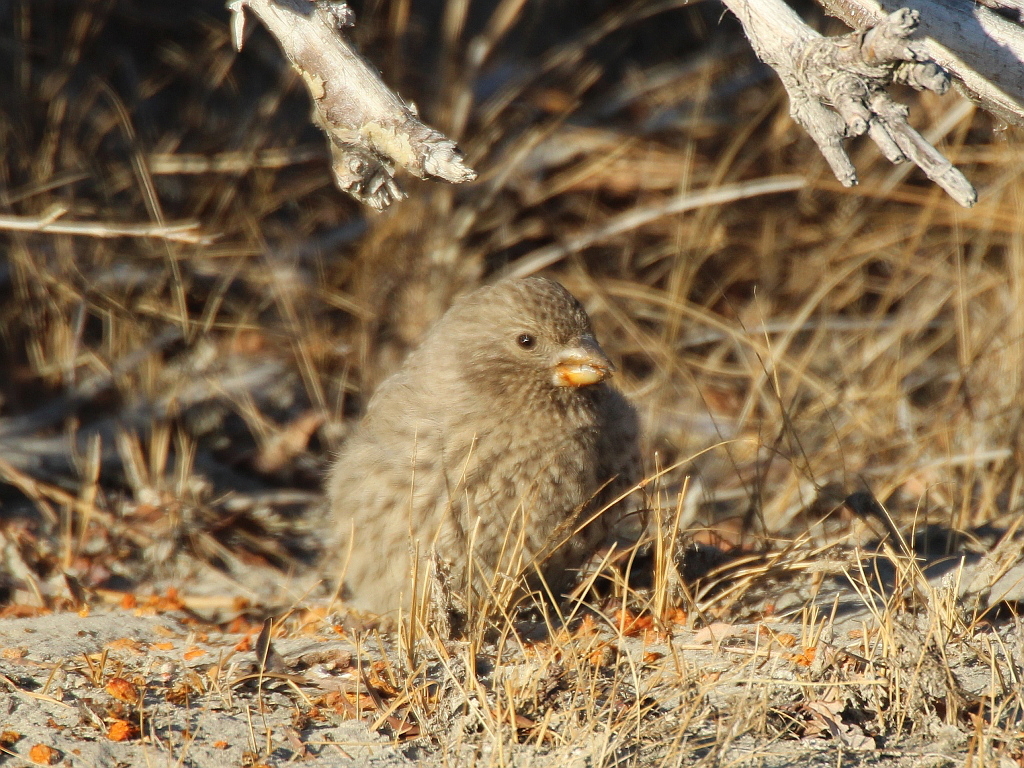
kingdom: Animalia
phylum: Chordata
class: Aves
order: Passeriformes
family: Fringillidae
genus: Carpodacus
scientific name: Carpodacus rubicilla
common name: Great rosefinch
